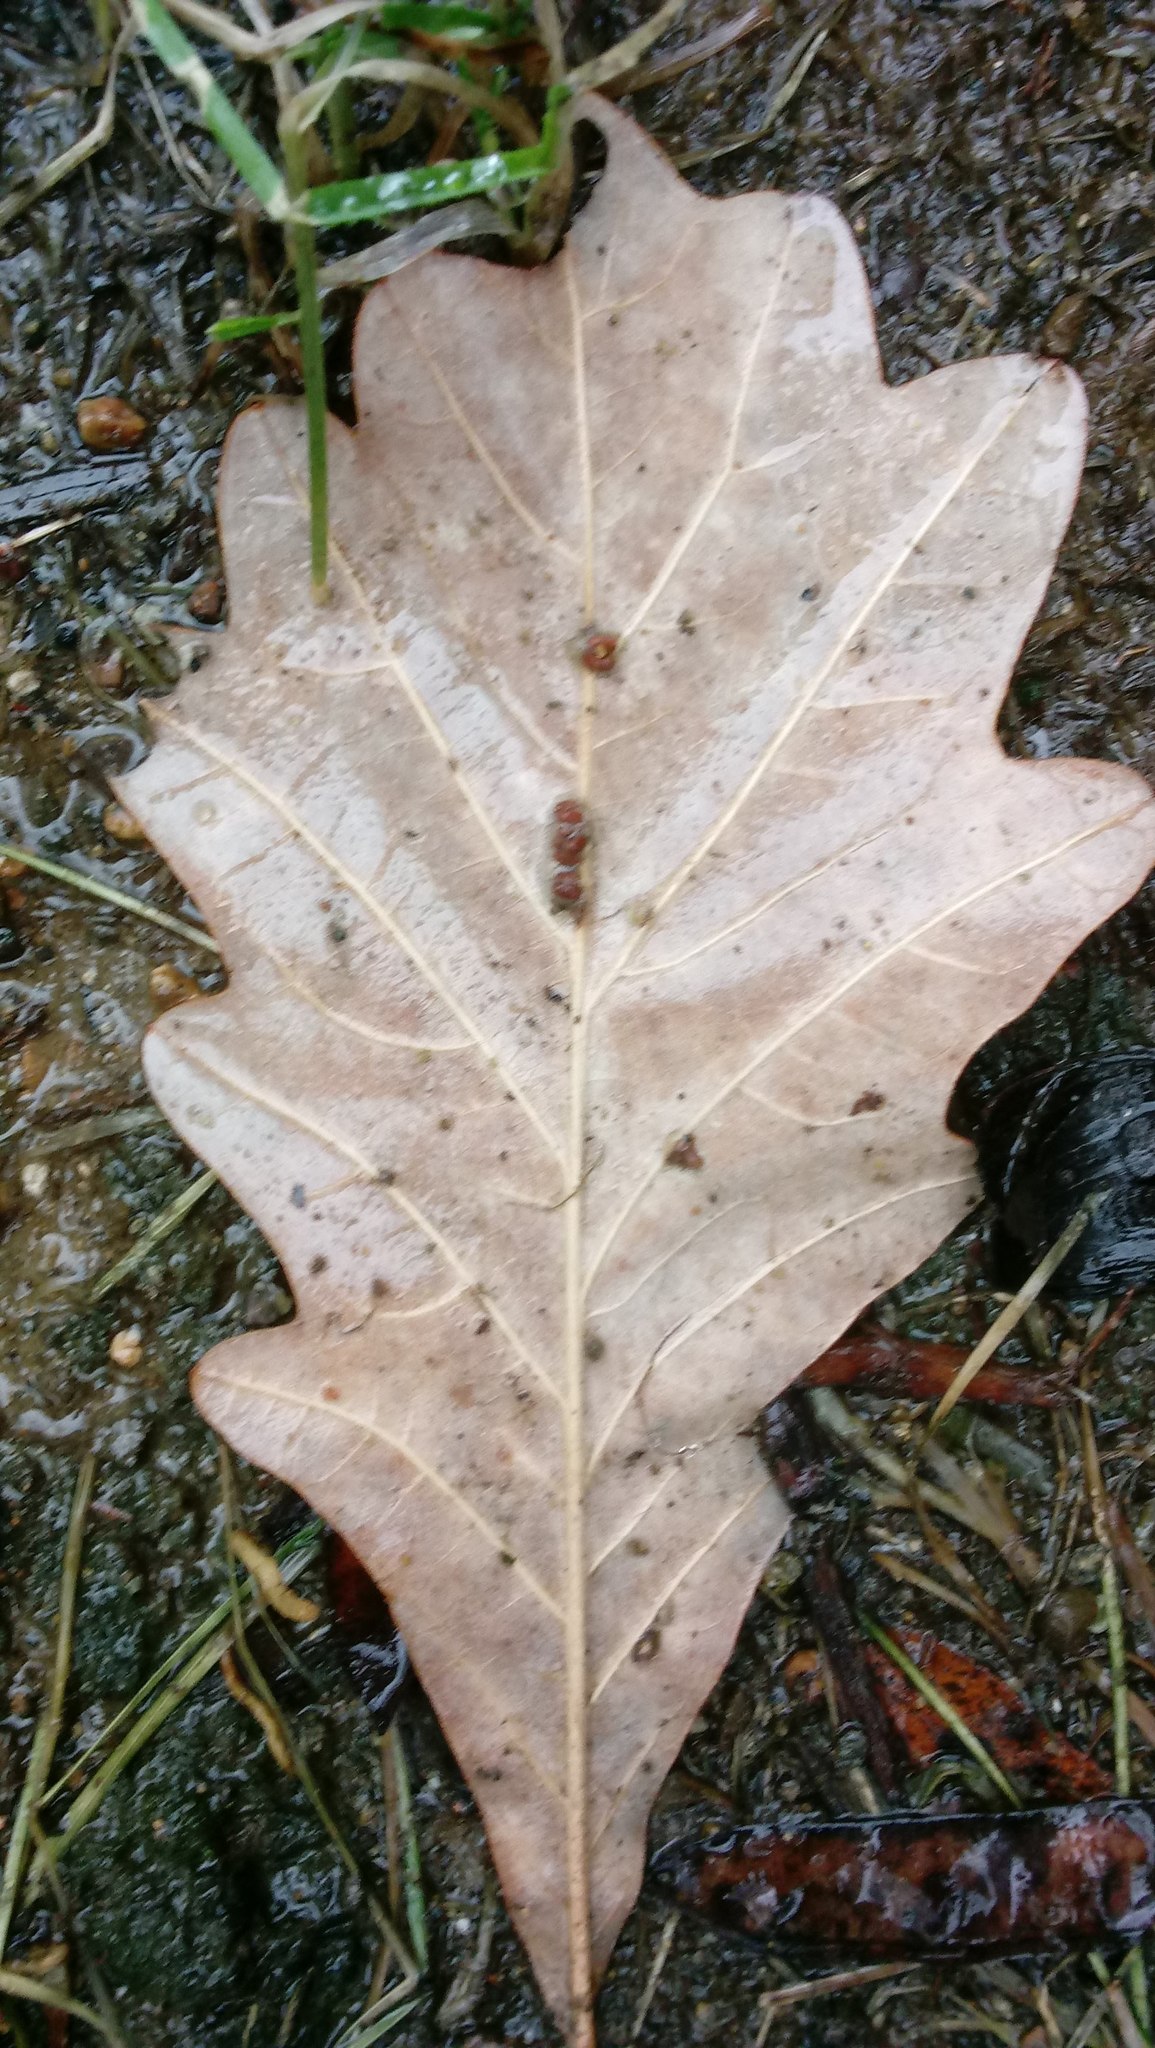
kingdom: Animalia
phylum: Arthropoda
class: Insecta
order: Hymenoptera
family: Cynipidae
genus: Andricus
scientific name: Andricus Druon ignotum
